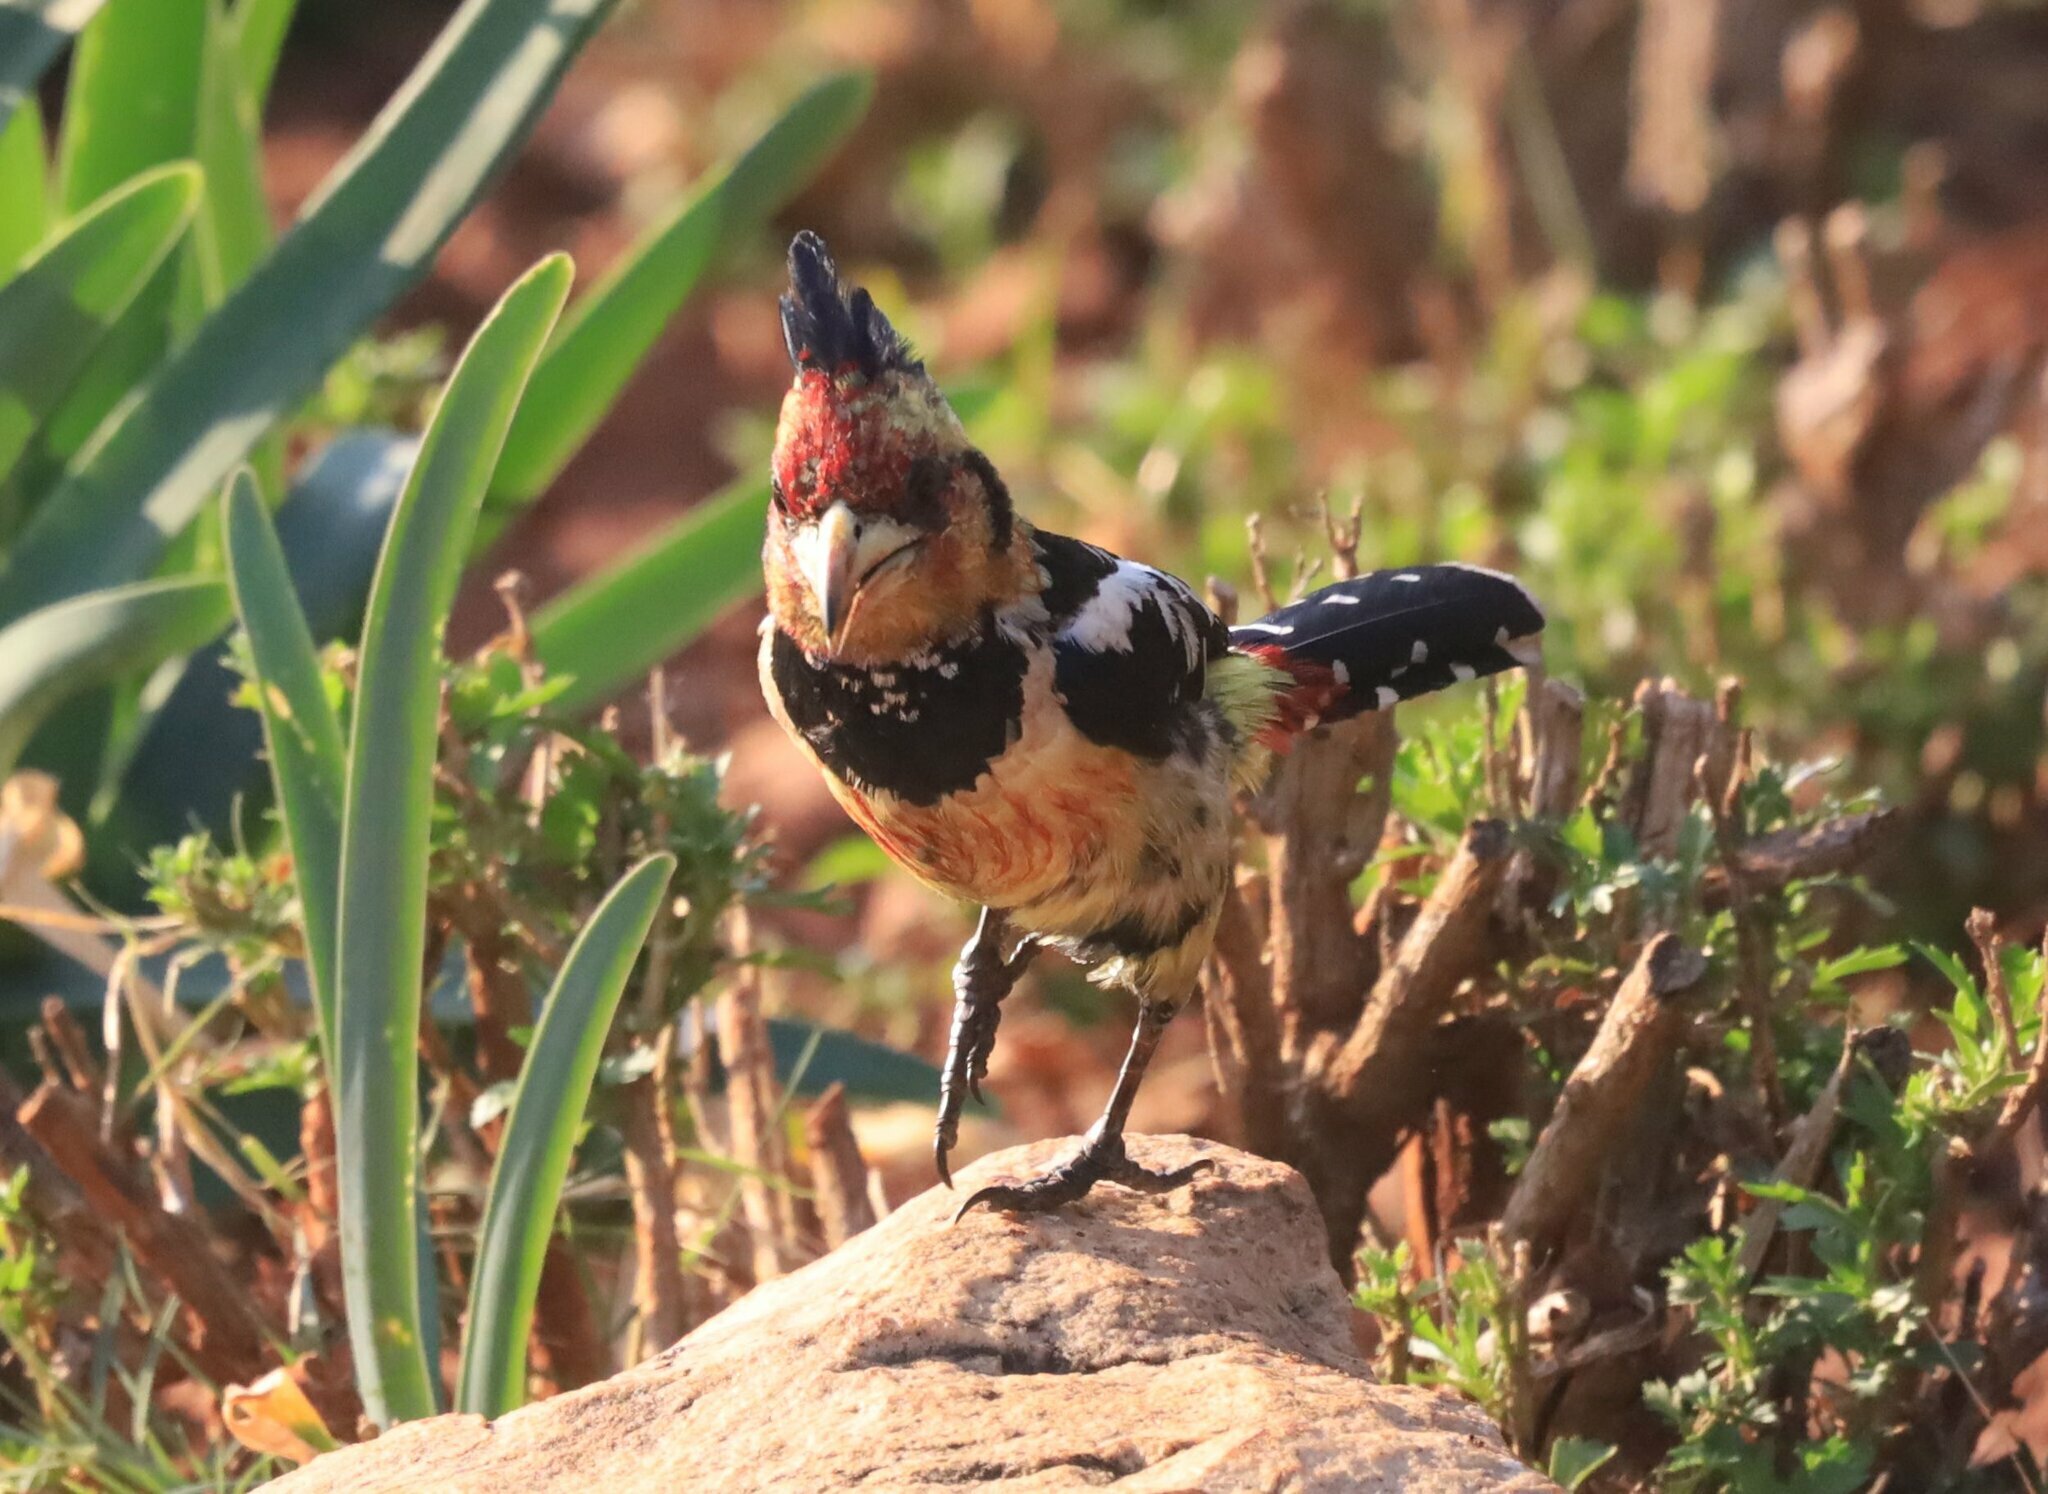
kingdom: Animalia
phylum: Chordata
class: Aves
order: Piciformes
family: Lybiidae
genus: Trachyphonus
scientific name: Trachyphonus vaillantii
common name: Crested barbet
